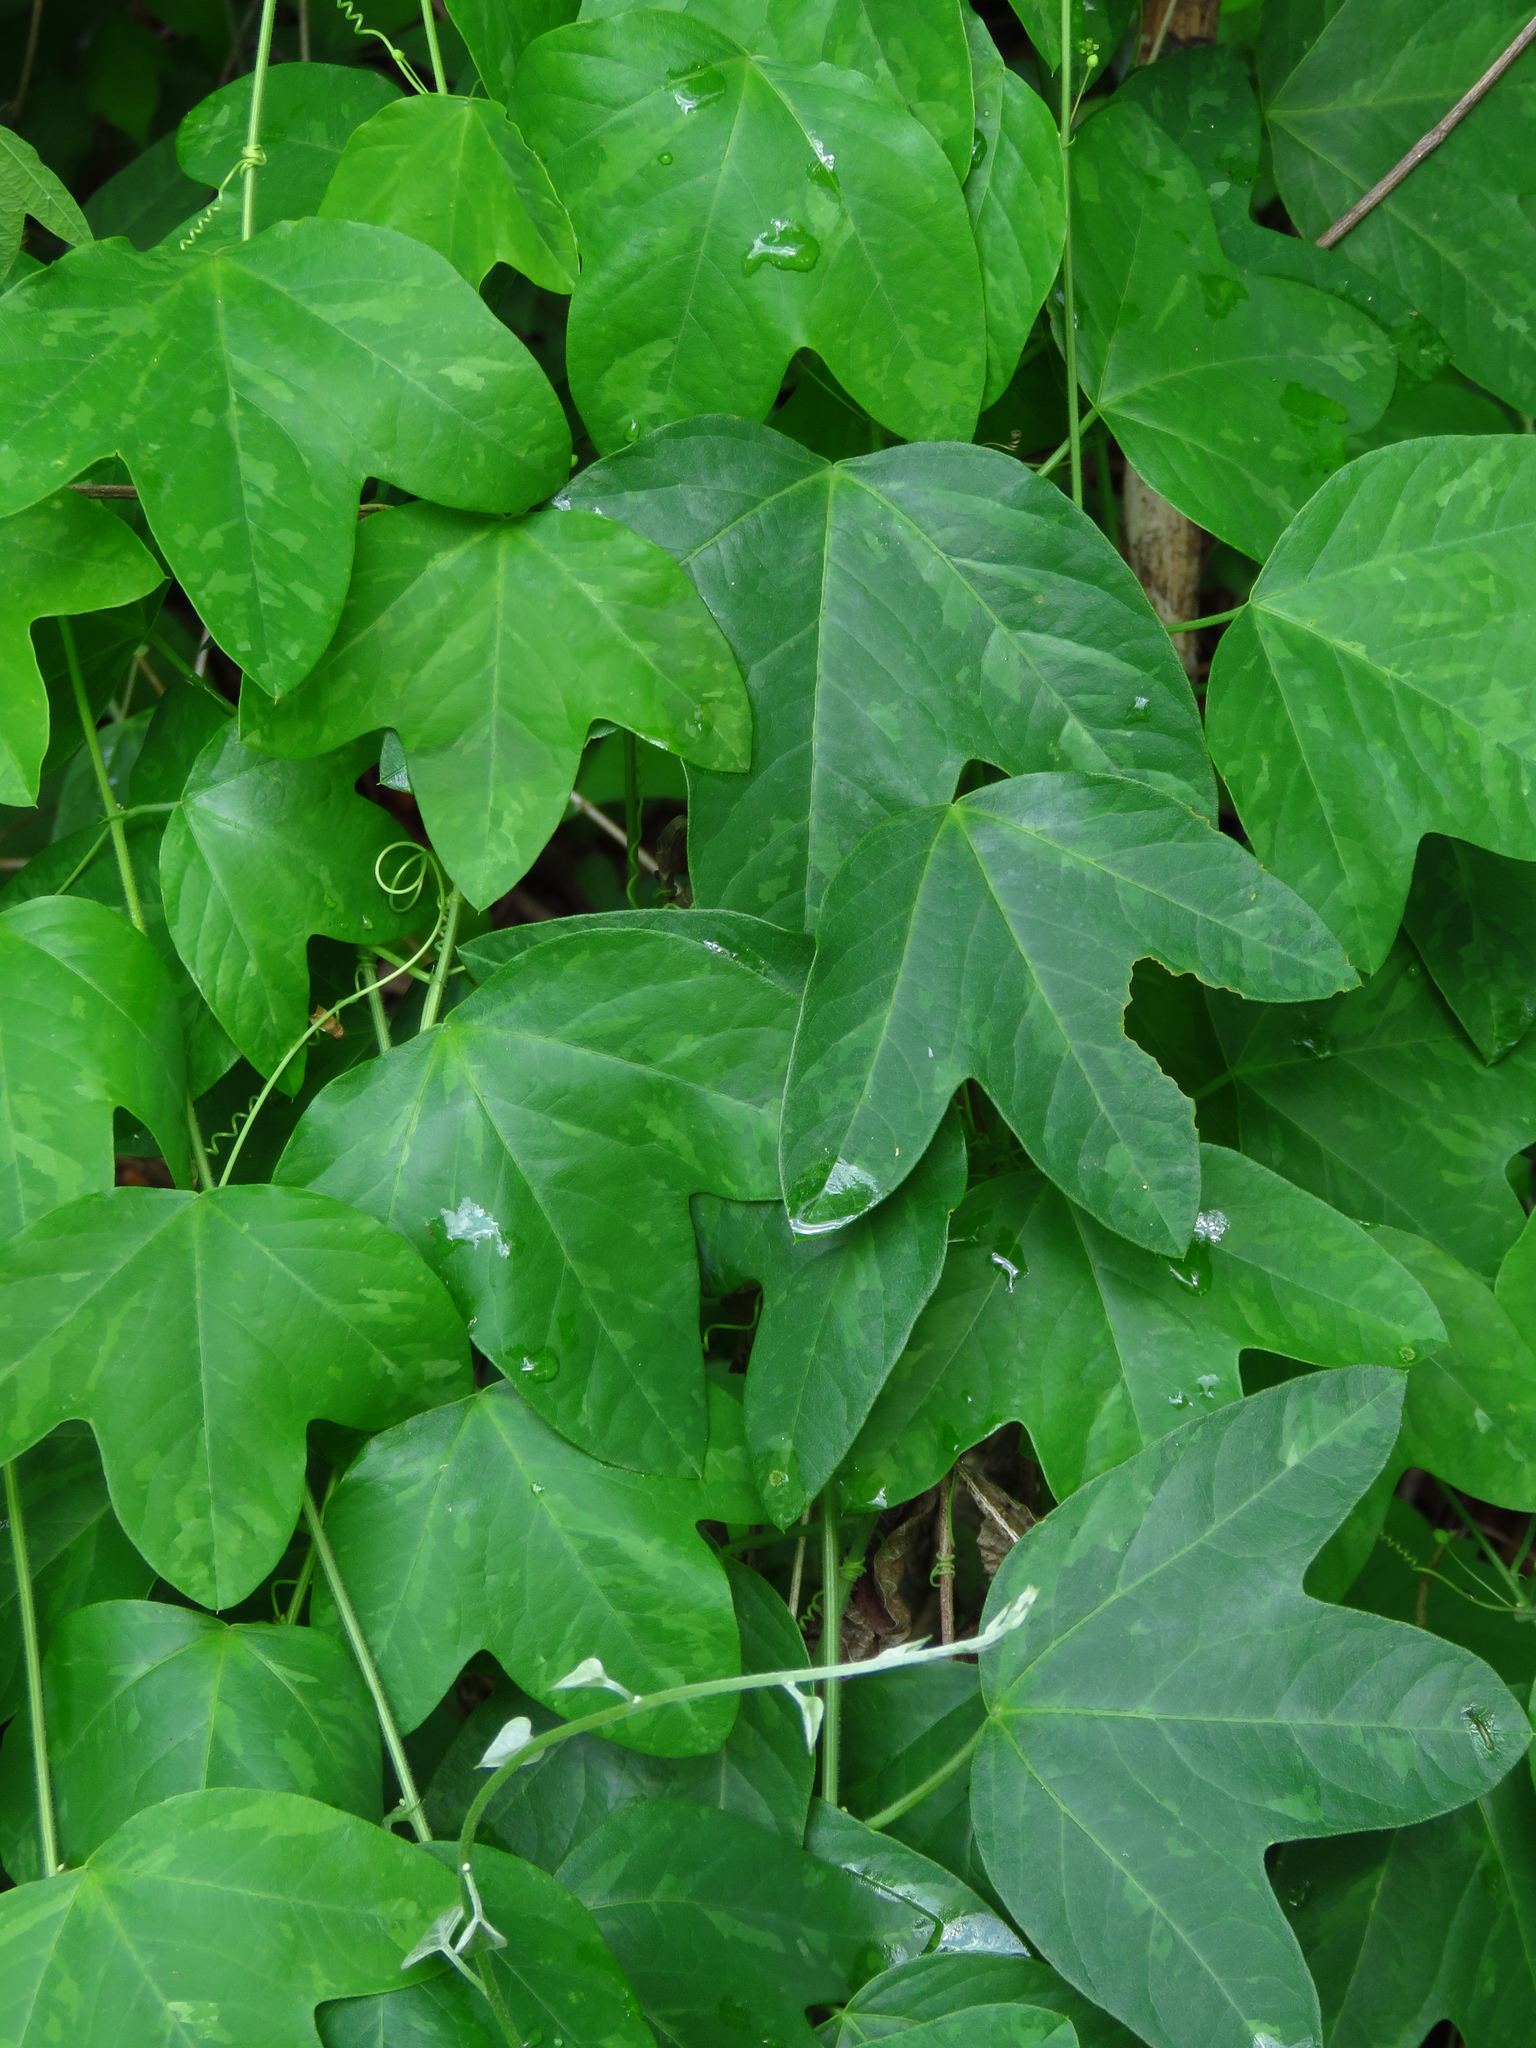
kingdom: Plantae
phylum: Tracheophyta
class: Magnoliopsida
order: Malpighiales
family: Passifloraceae
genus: Passiflora
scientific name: Passiflora lutea
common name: Yellow passionflower
